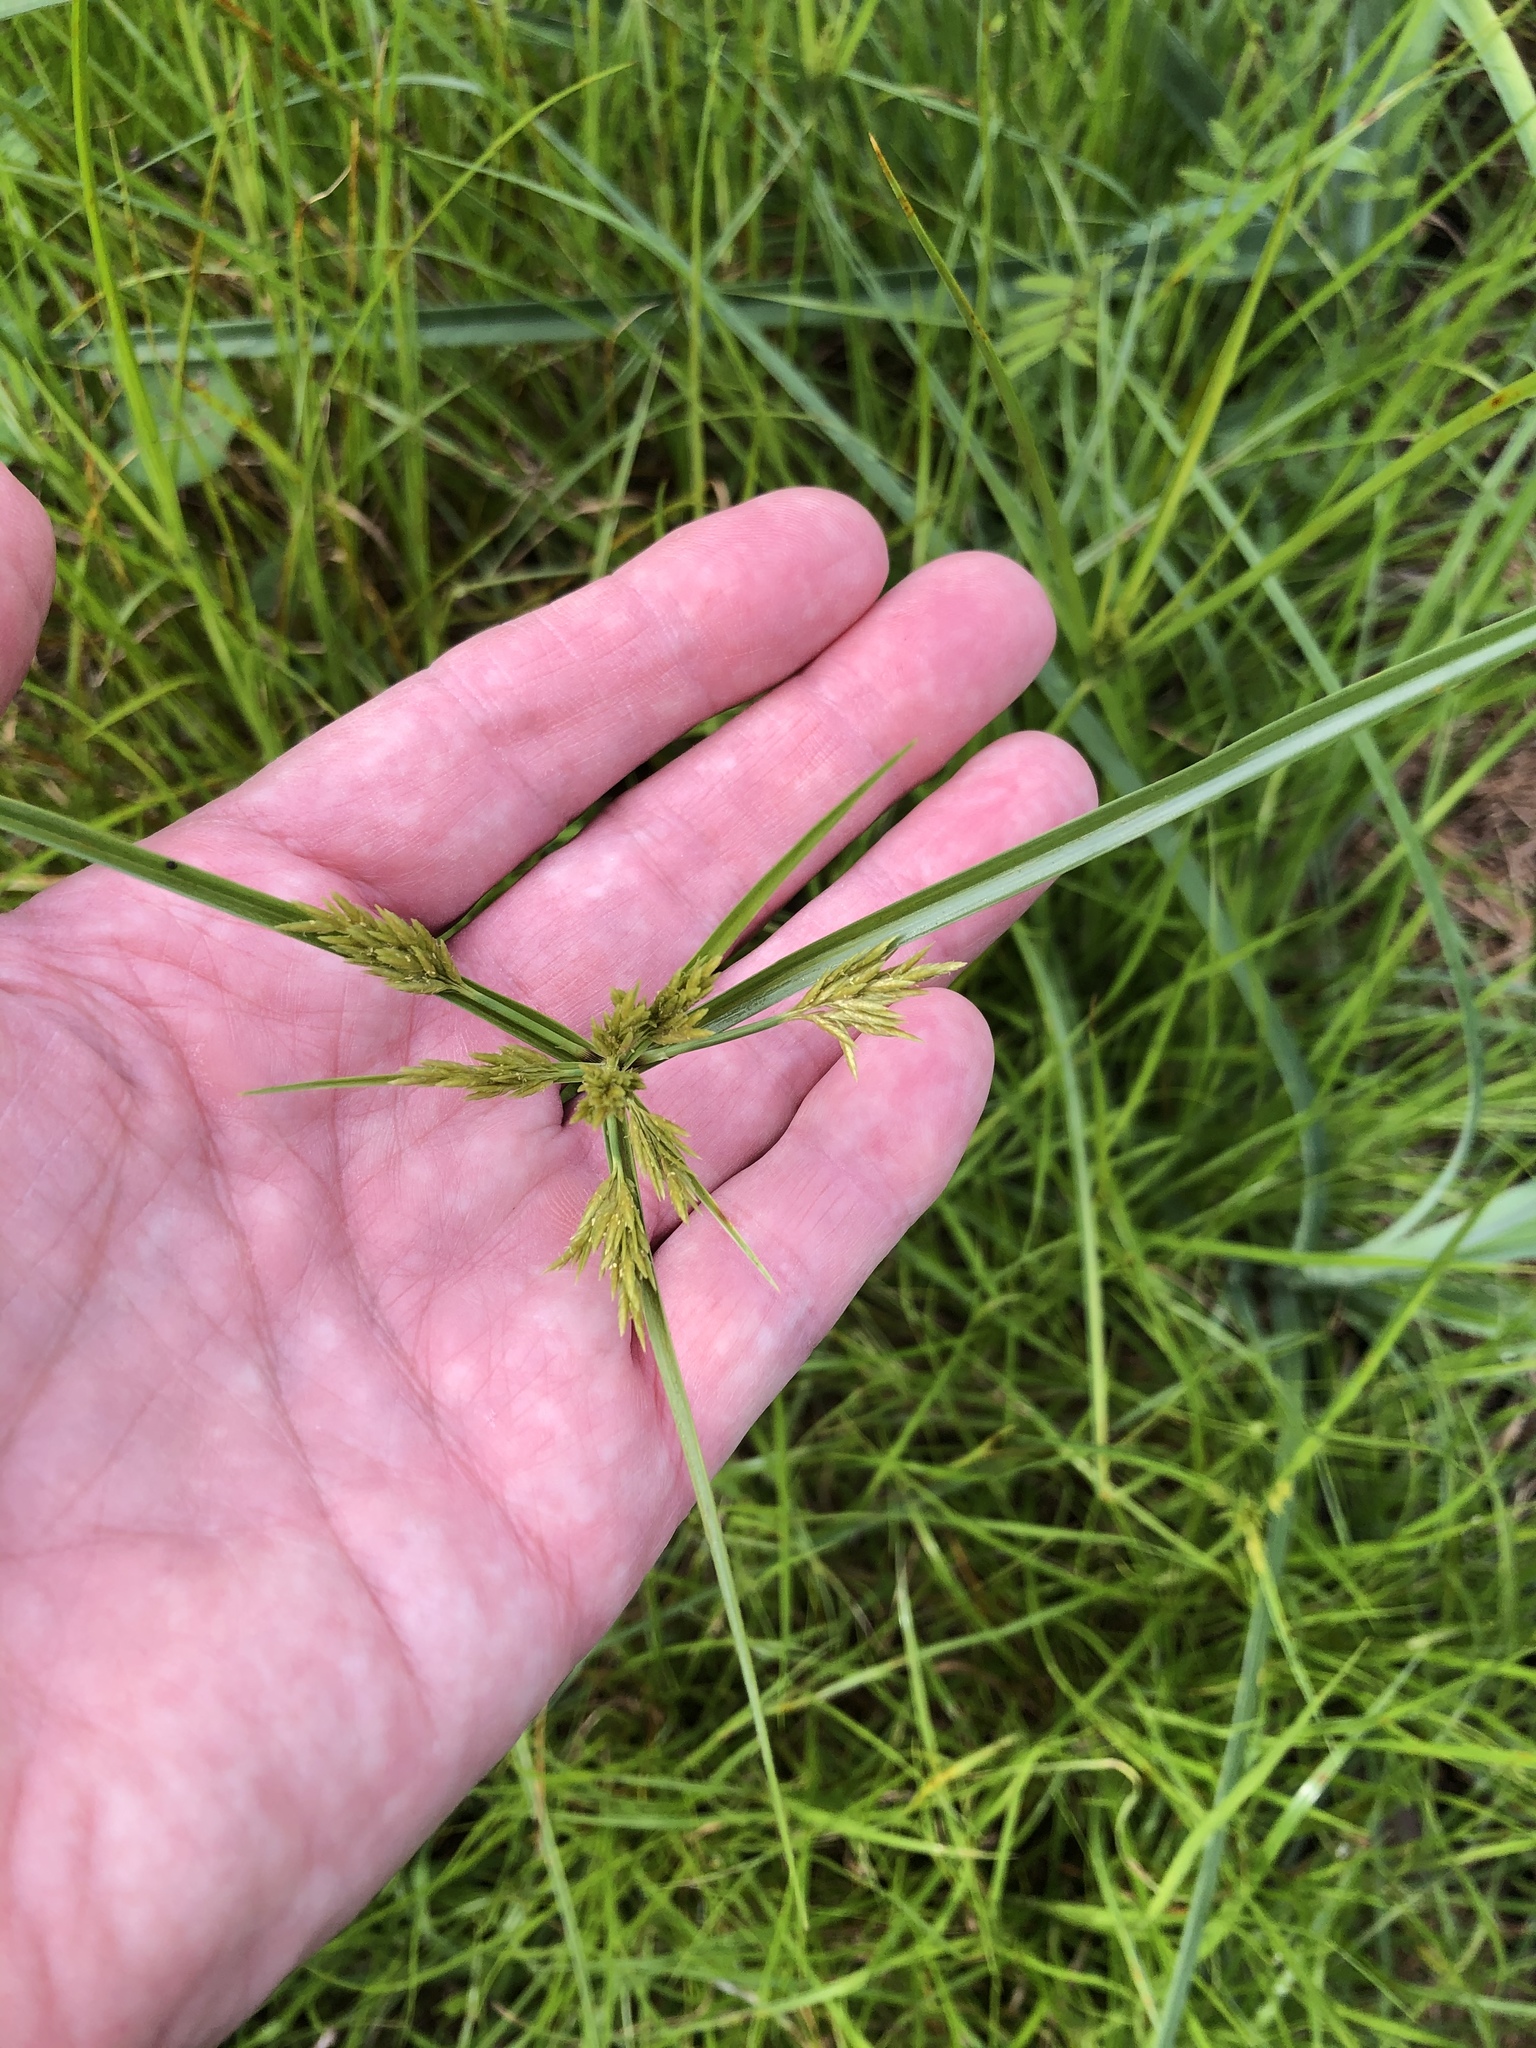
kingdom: Plantae
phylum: Tracheophyta
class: Liliopsida
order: Poales
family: Cyperaceae
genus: Cyperus
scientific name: Cyperus polystachyos
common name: Bunchy flat sedge
